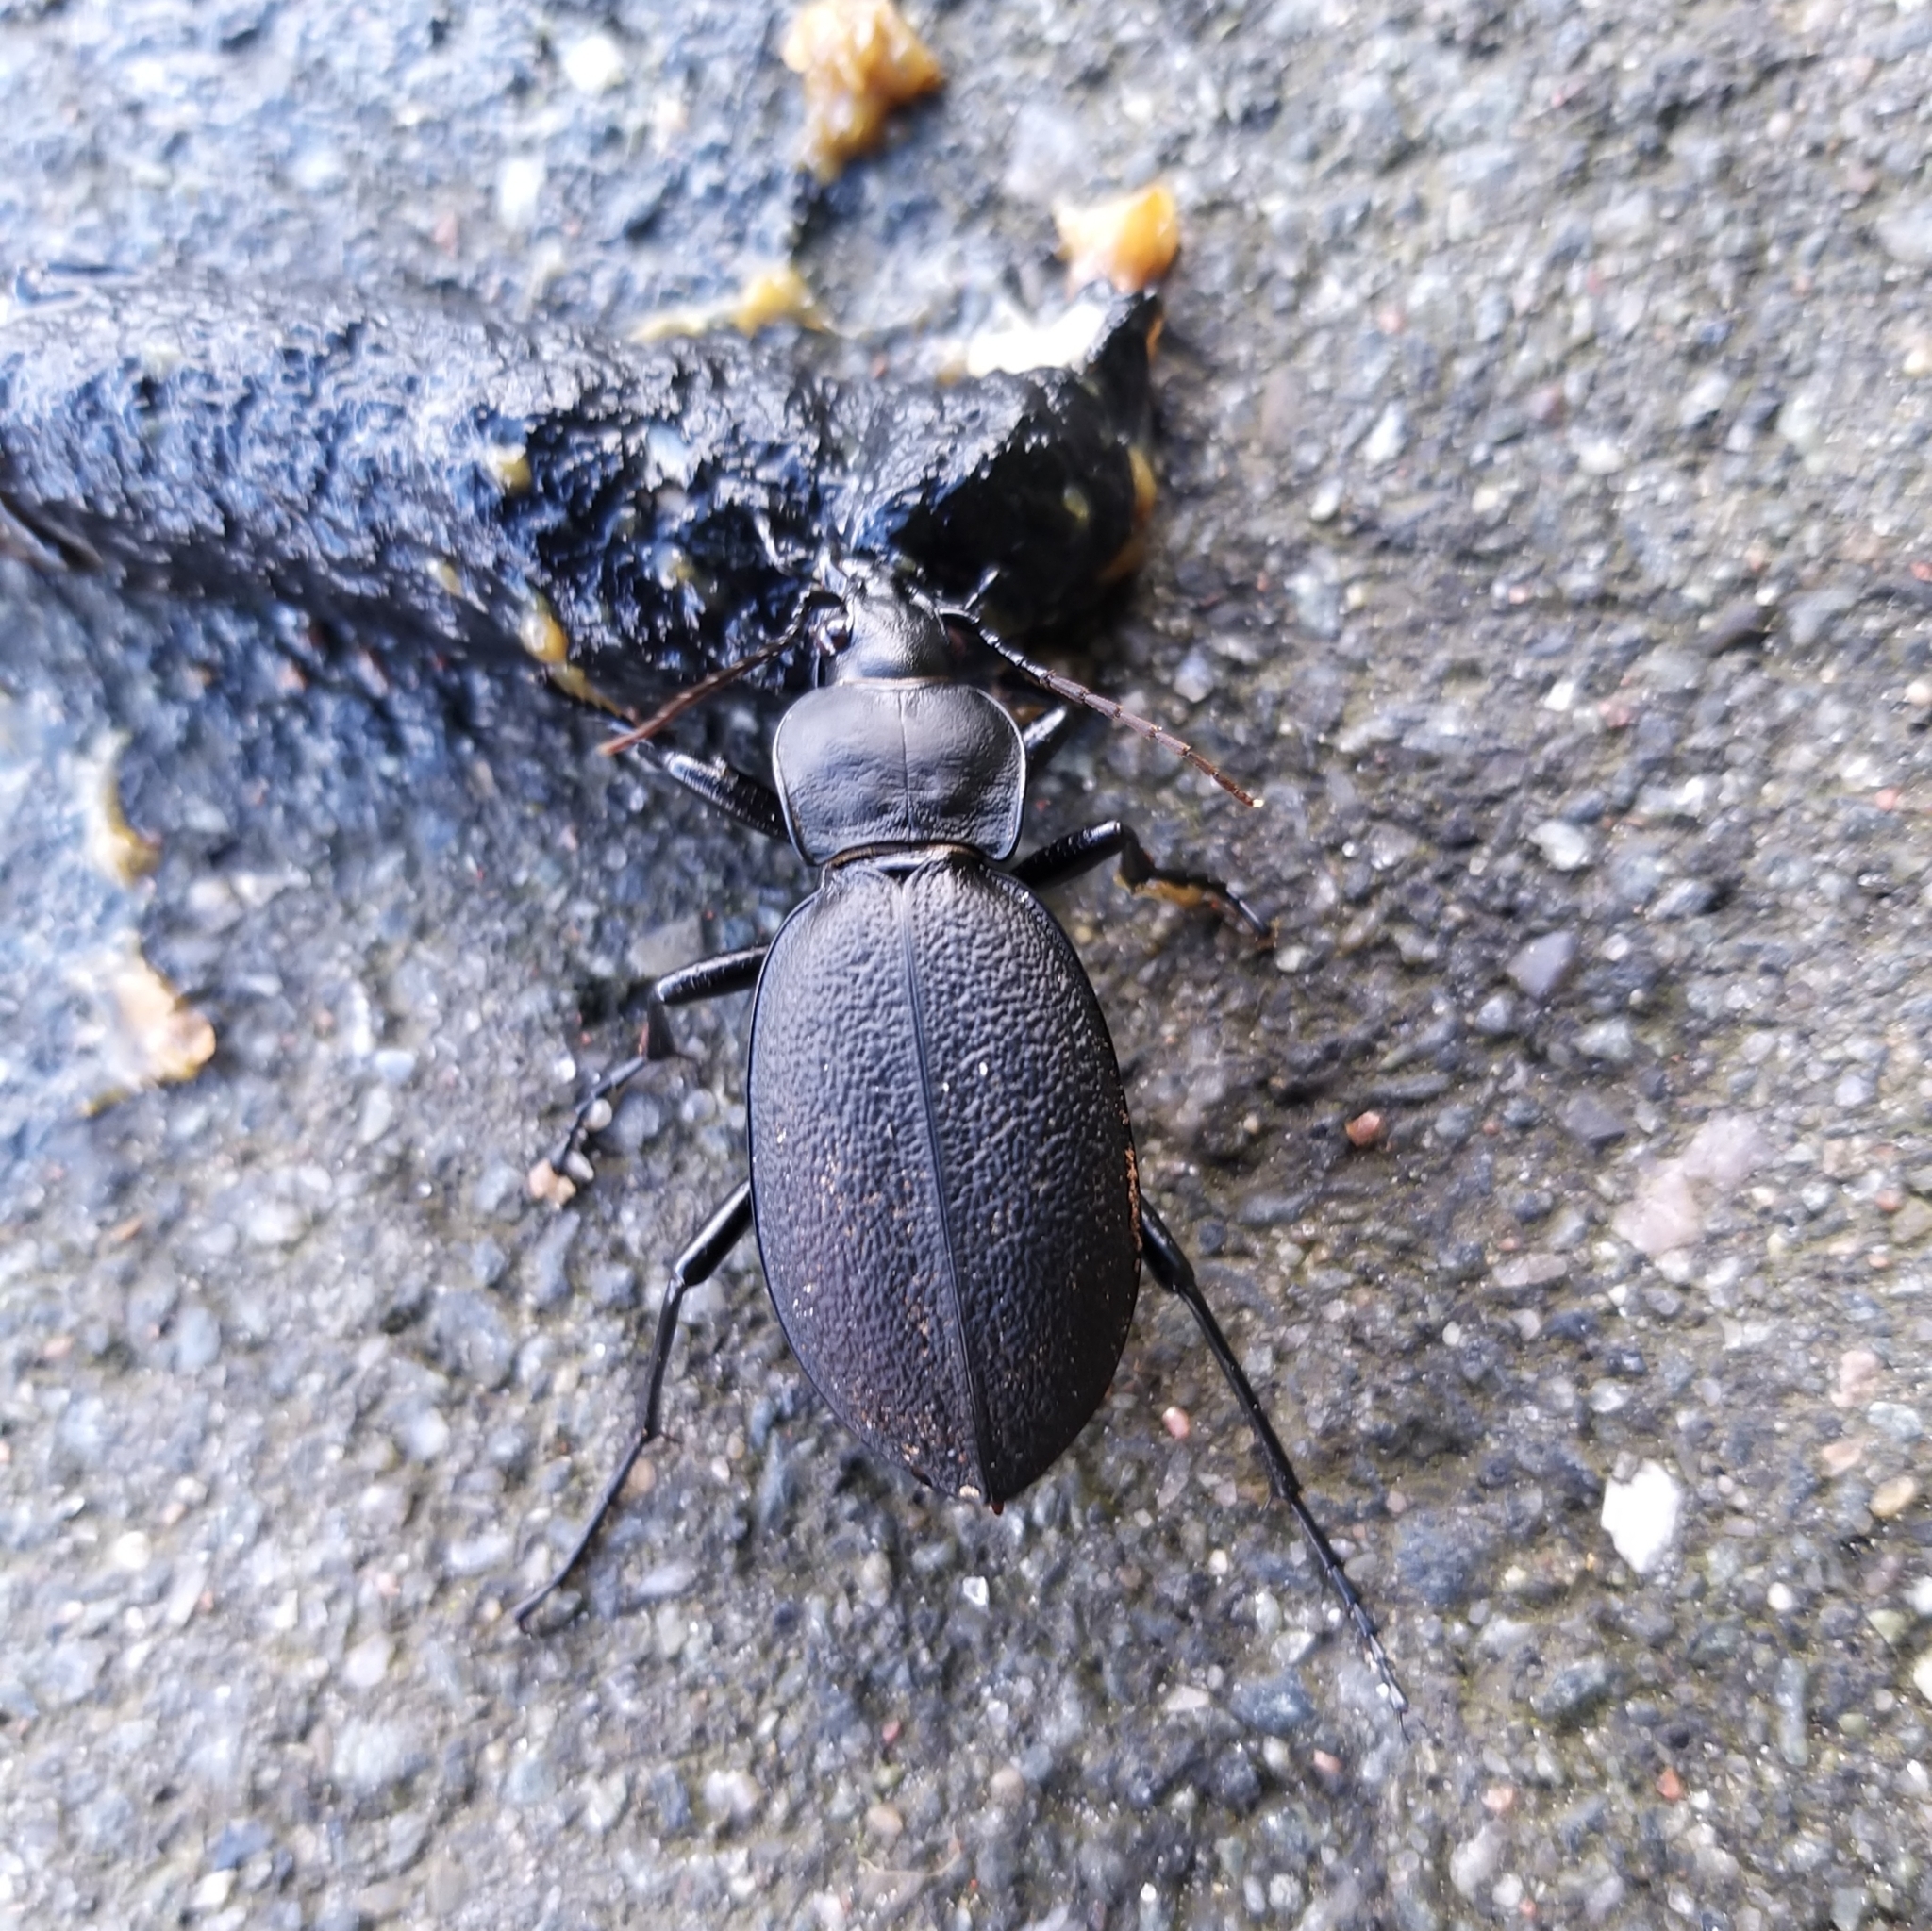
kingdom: Animalia
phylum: Arthropoda
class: Insecta
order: Coleoptera
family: Carabidae
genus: Carabus
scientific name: Carabus coriaceus
